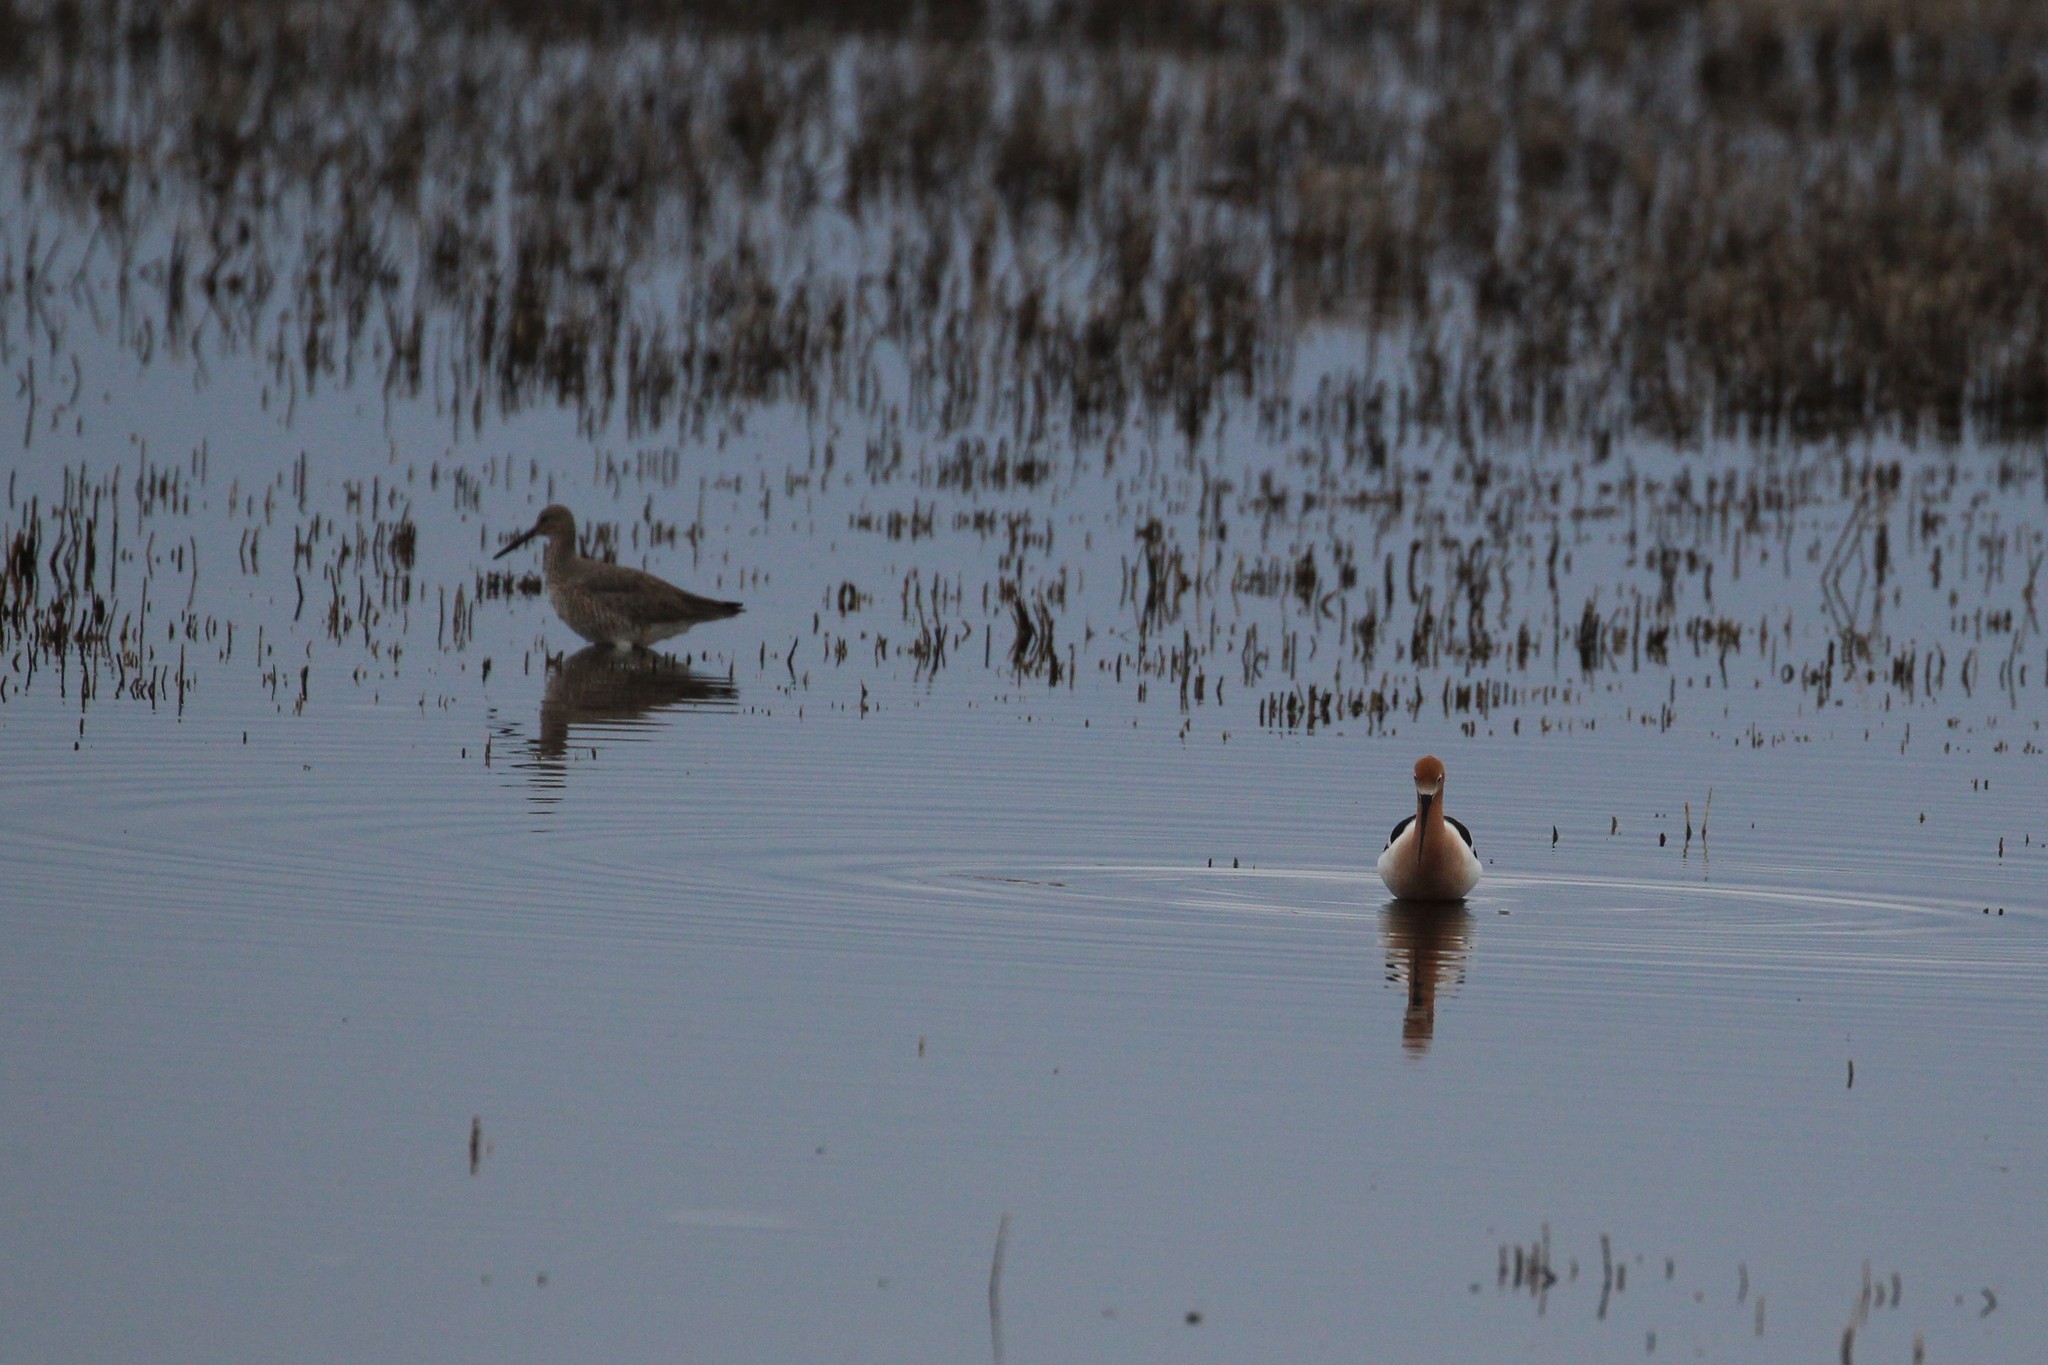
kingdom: Animalia
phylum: Chordata
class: Aves
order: Charadriiformes
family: Recurvirostridae
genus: Recurvirostra
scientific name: Recurvirostra americana
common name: American avocet
